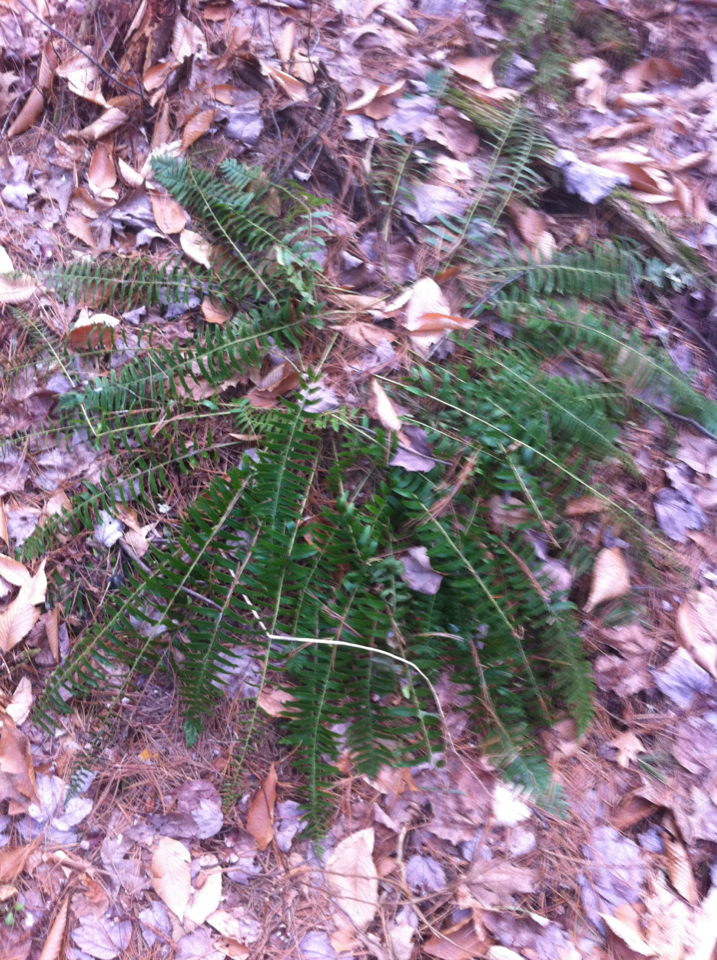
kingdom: Plantae
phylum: Tracheophyta
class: Polypodiopsida
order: Polypodiales
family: Dryopteridaceae
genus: Polystichum
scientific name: Polystichum acrostichoides
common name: Christmas fern
